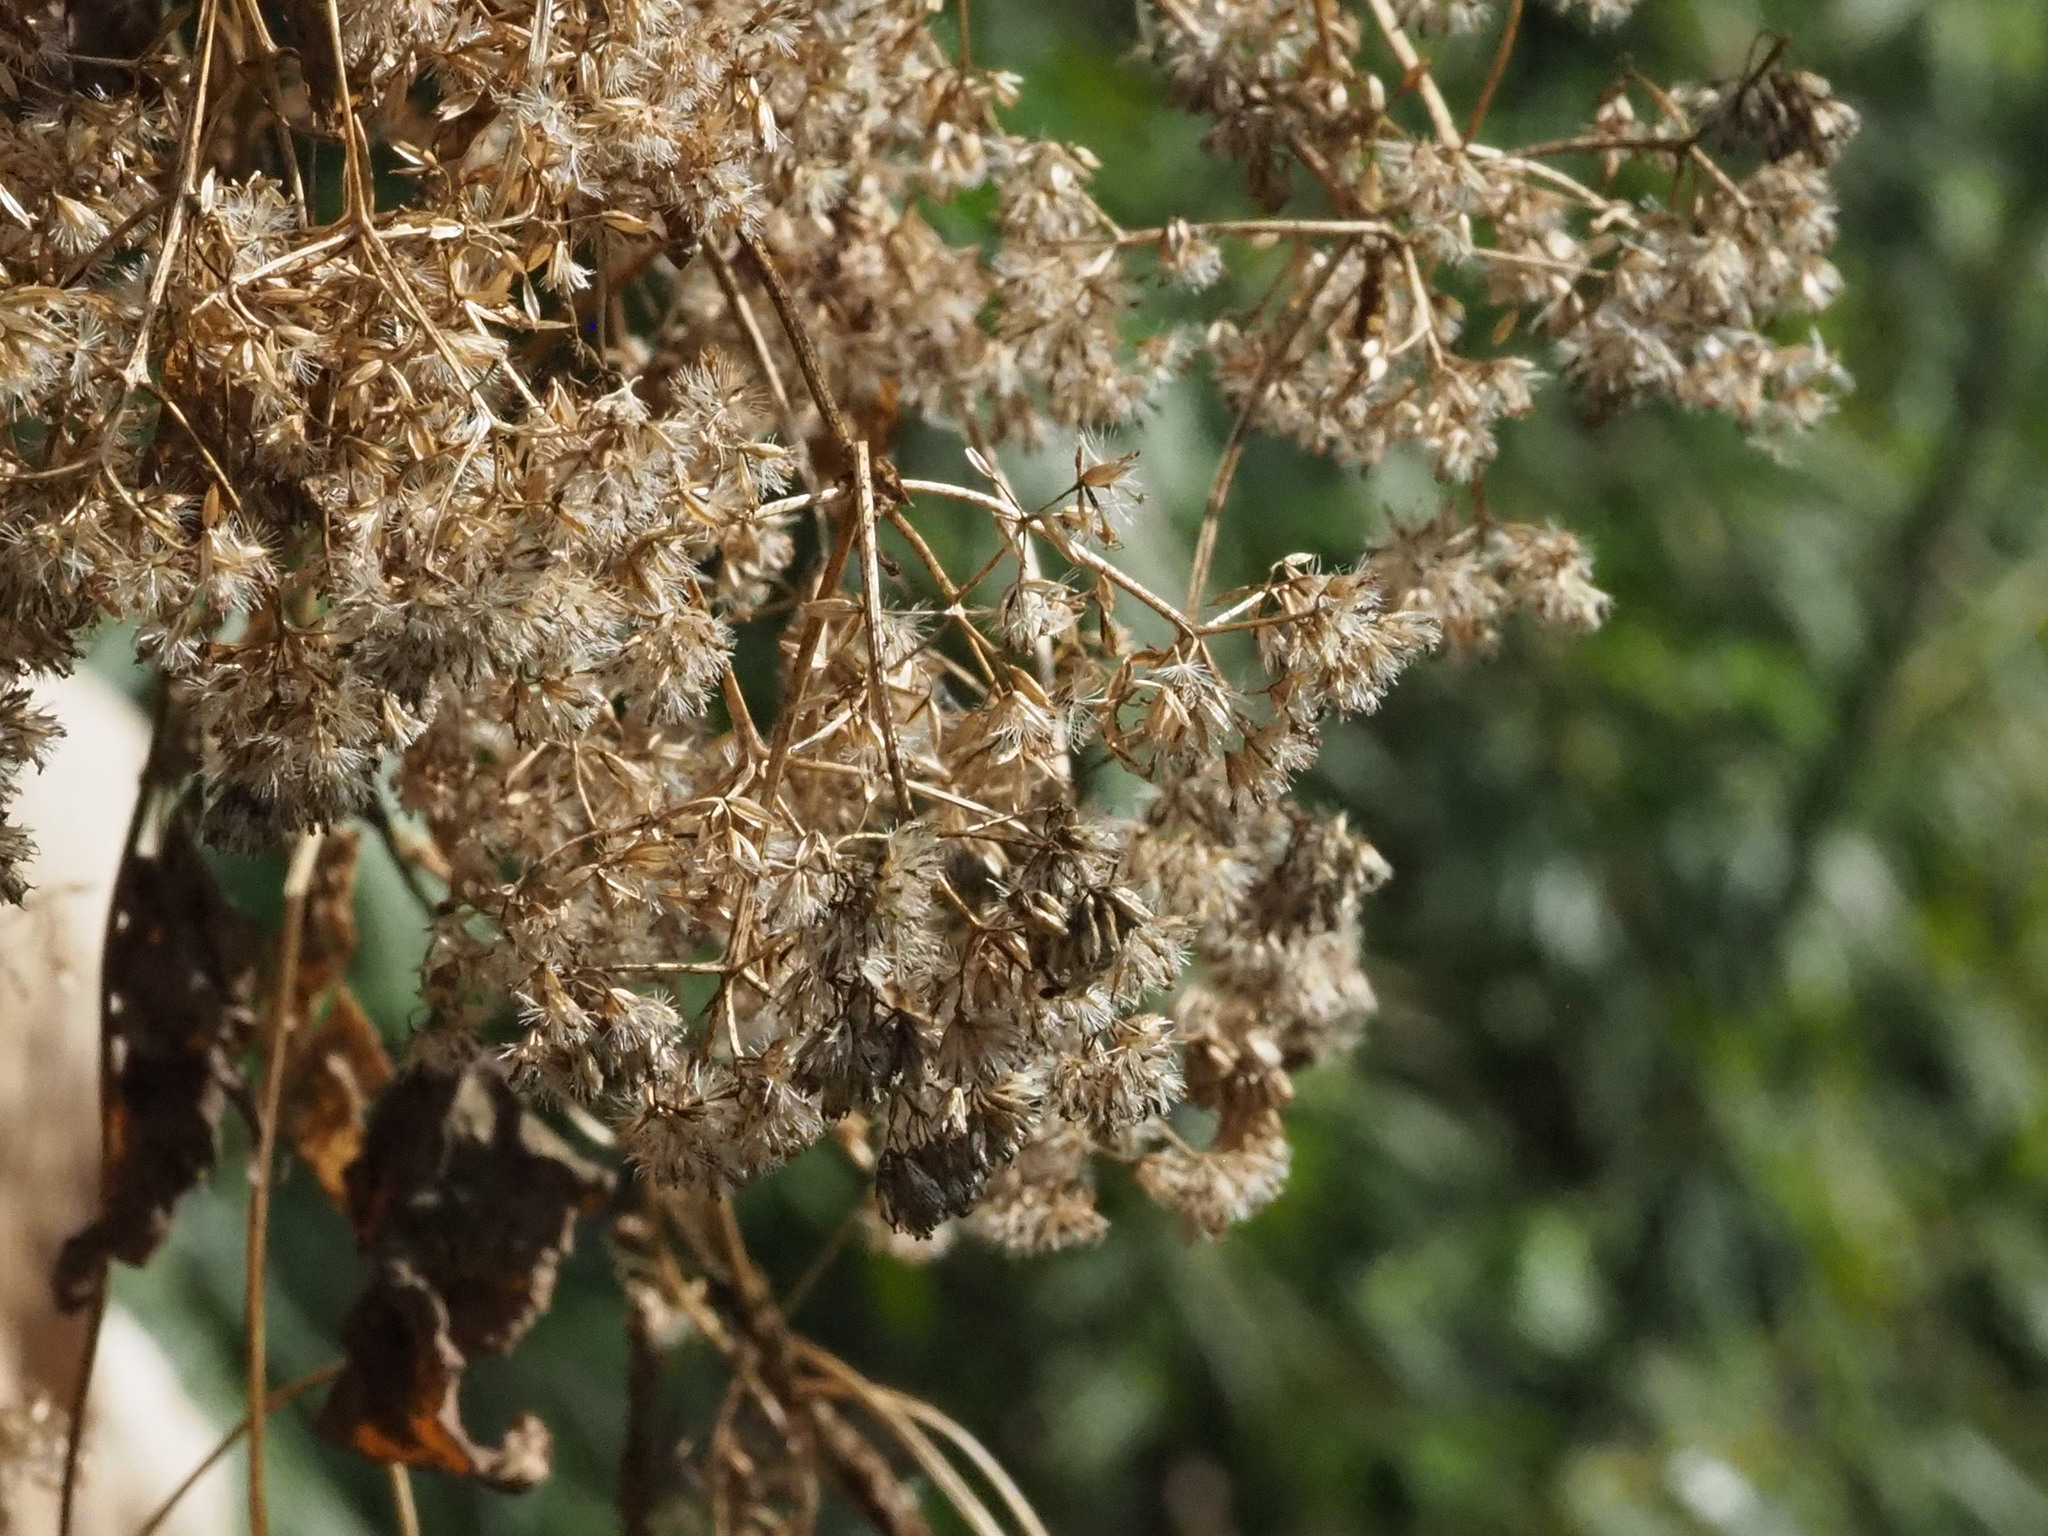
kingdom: Plantae
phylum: Tracheophyta
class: Magnoliopsida
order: Asterales
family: Asteraceae
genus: Mikania
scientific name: Mikania micrantha
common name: Mile-a-minute
